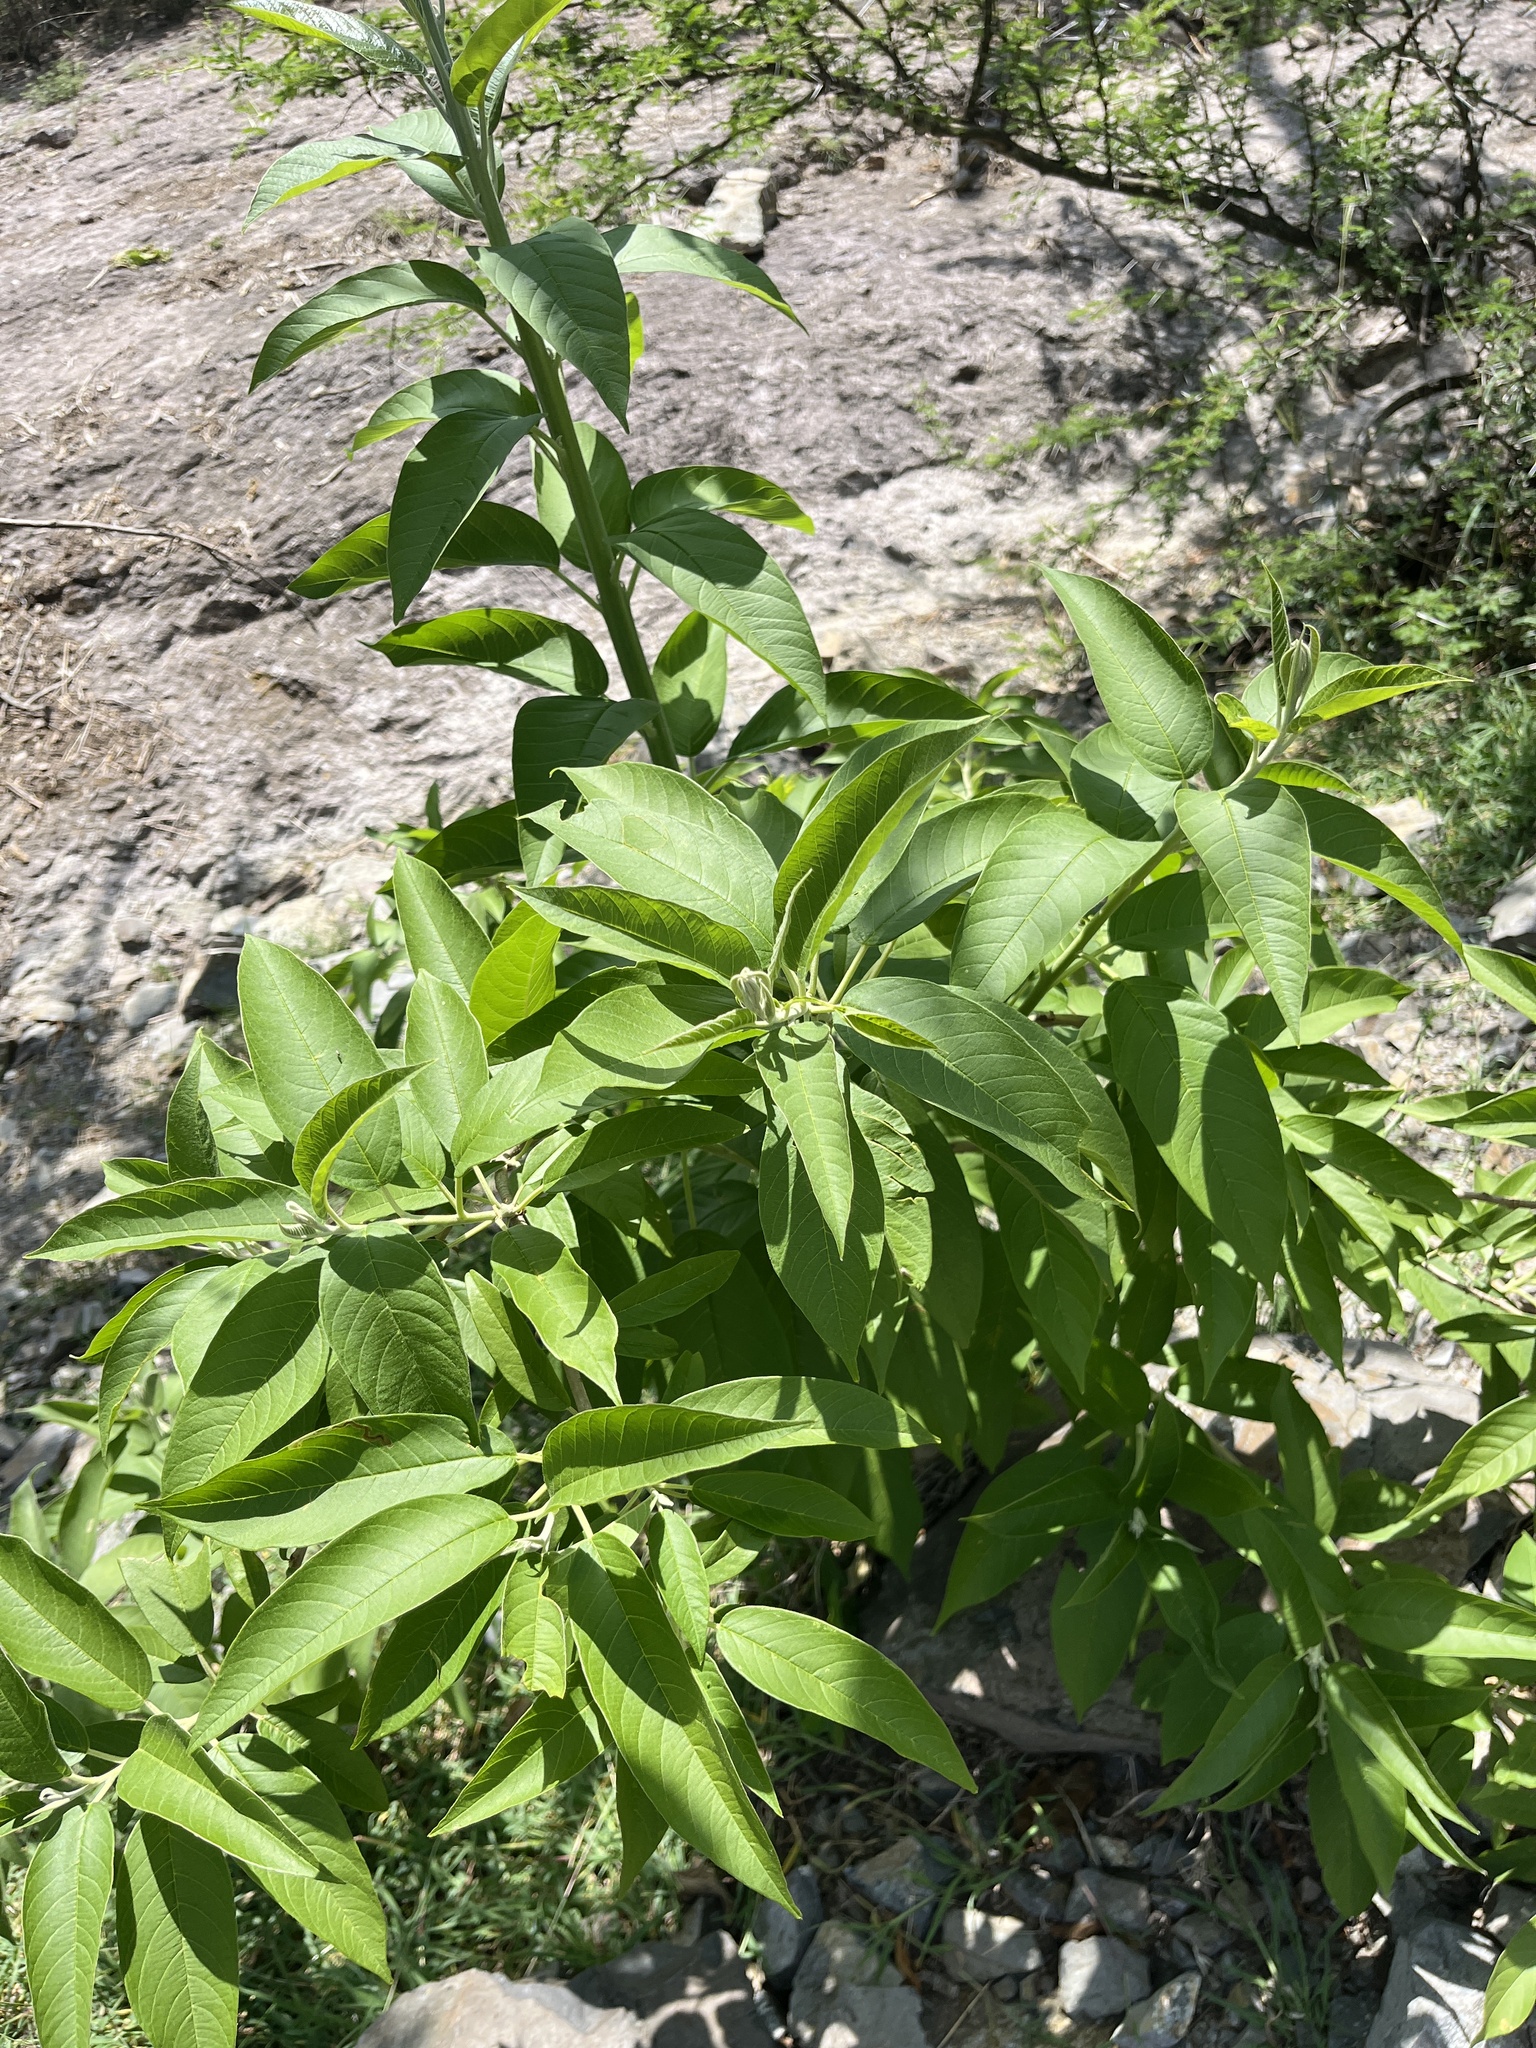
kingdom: Plantae
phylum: Tracheophyta
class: Magnoliopsida
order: Solanales
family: Convolvulaceae
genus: Ipomoea
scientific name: Ipomoea murucoides
